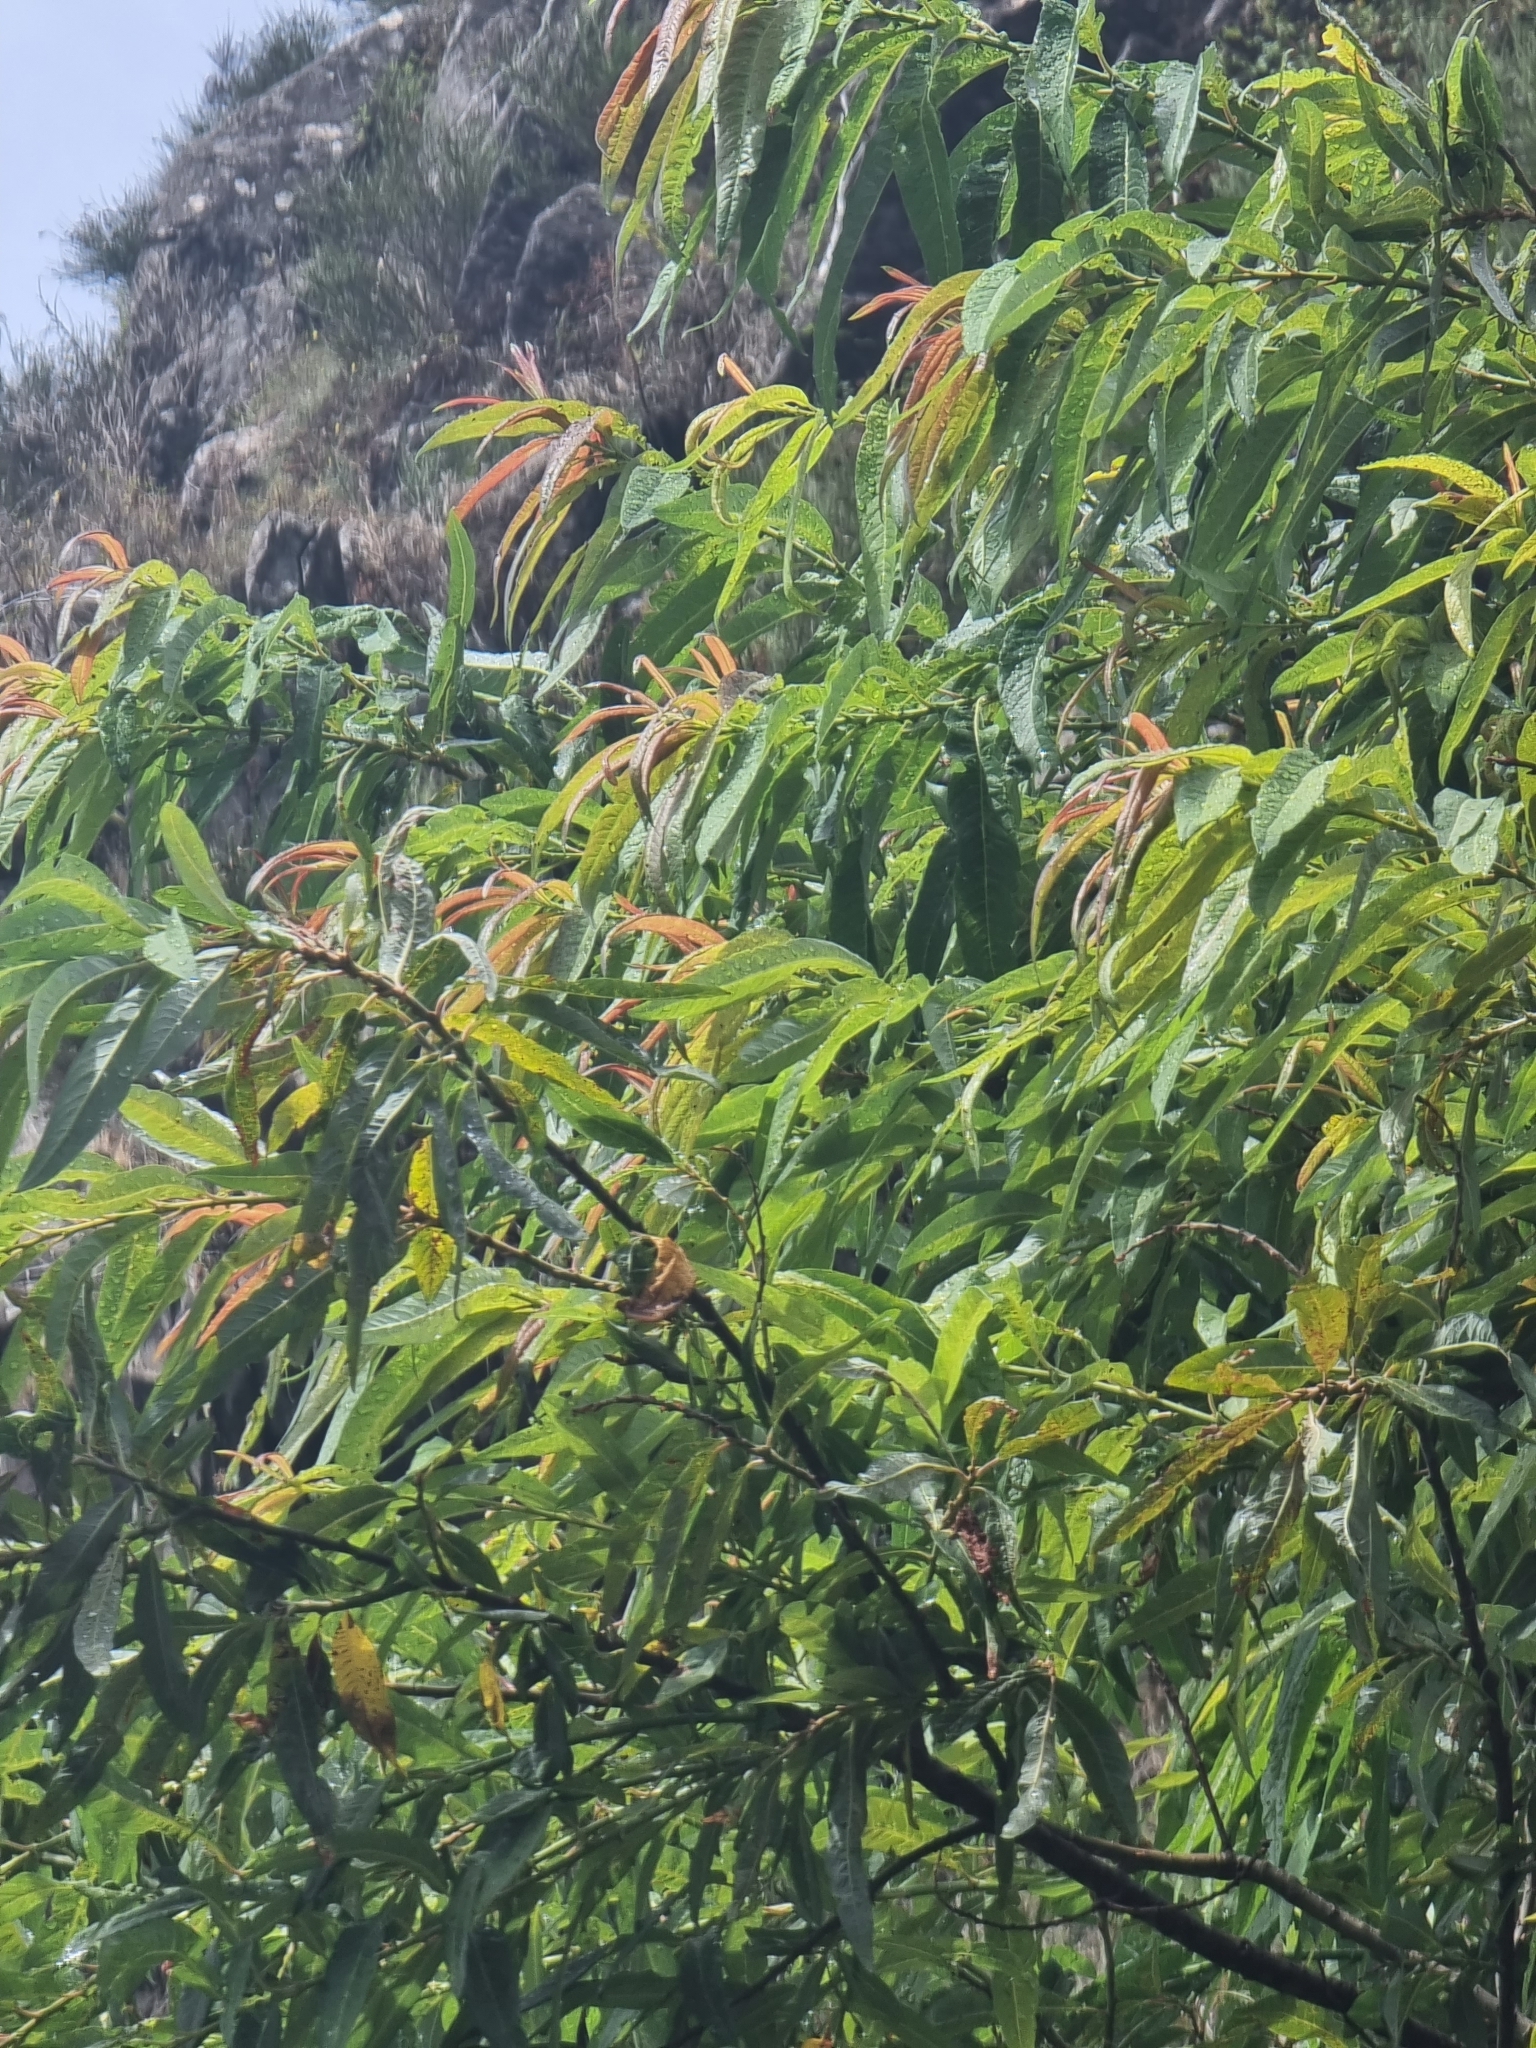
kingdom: Plantae
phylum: Tracheophyta
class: Magnoliopsida
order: Malpighiales
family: Salicaceae
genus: Salix
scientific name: Salix canariensis
